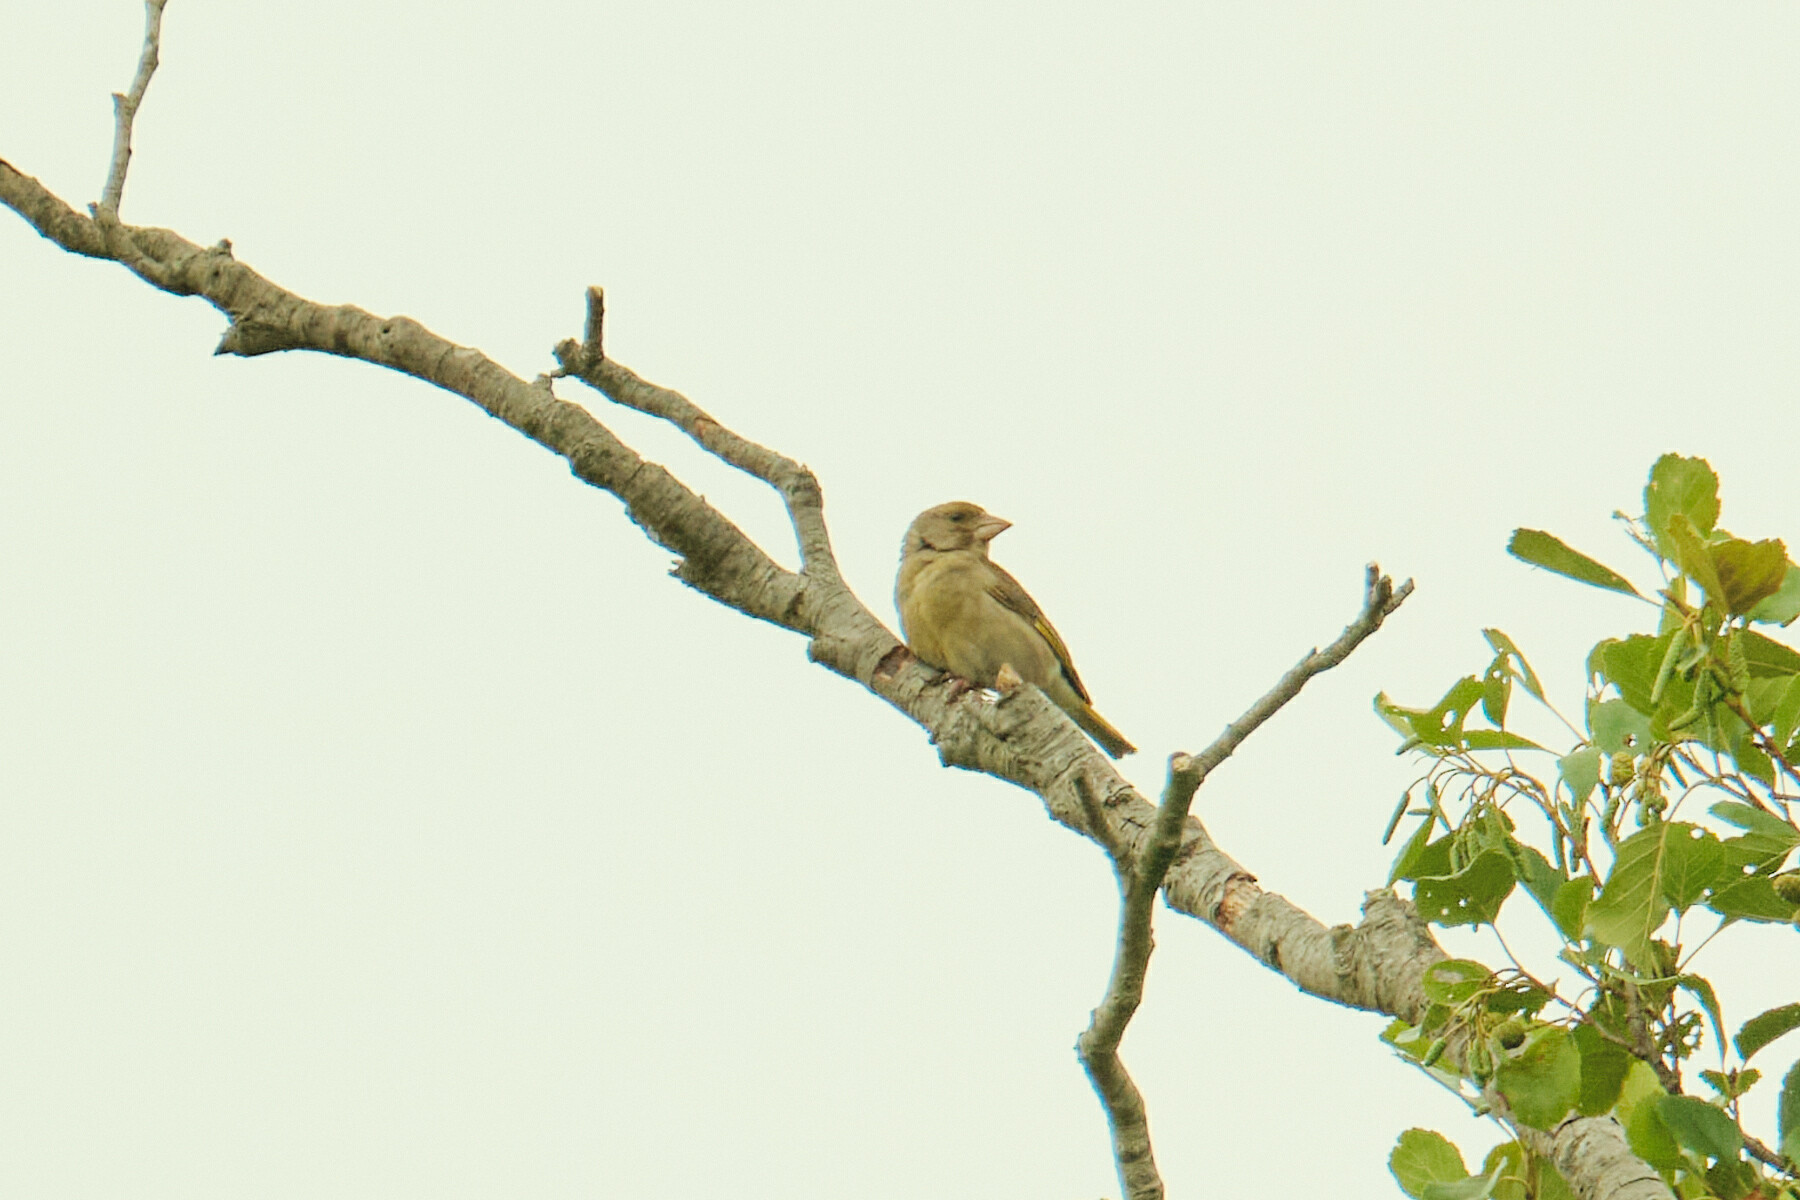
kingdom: Plantae
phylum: Tracheophyta
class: Liliopsida
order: Poales
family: Poaceae
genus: Chloris
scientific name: Chloris chloris
